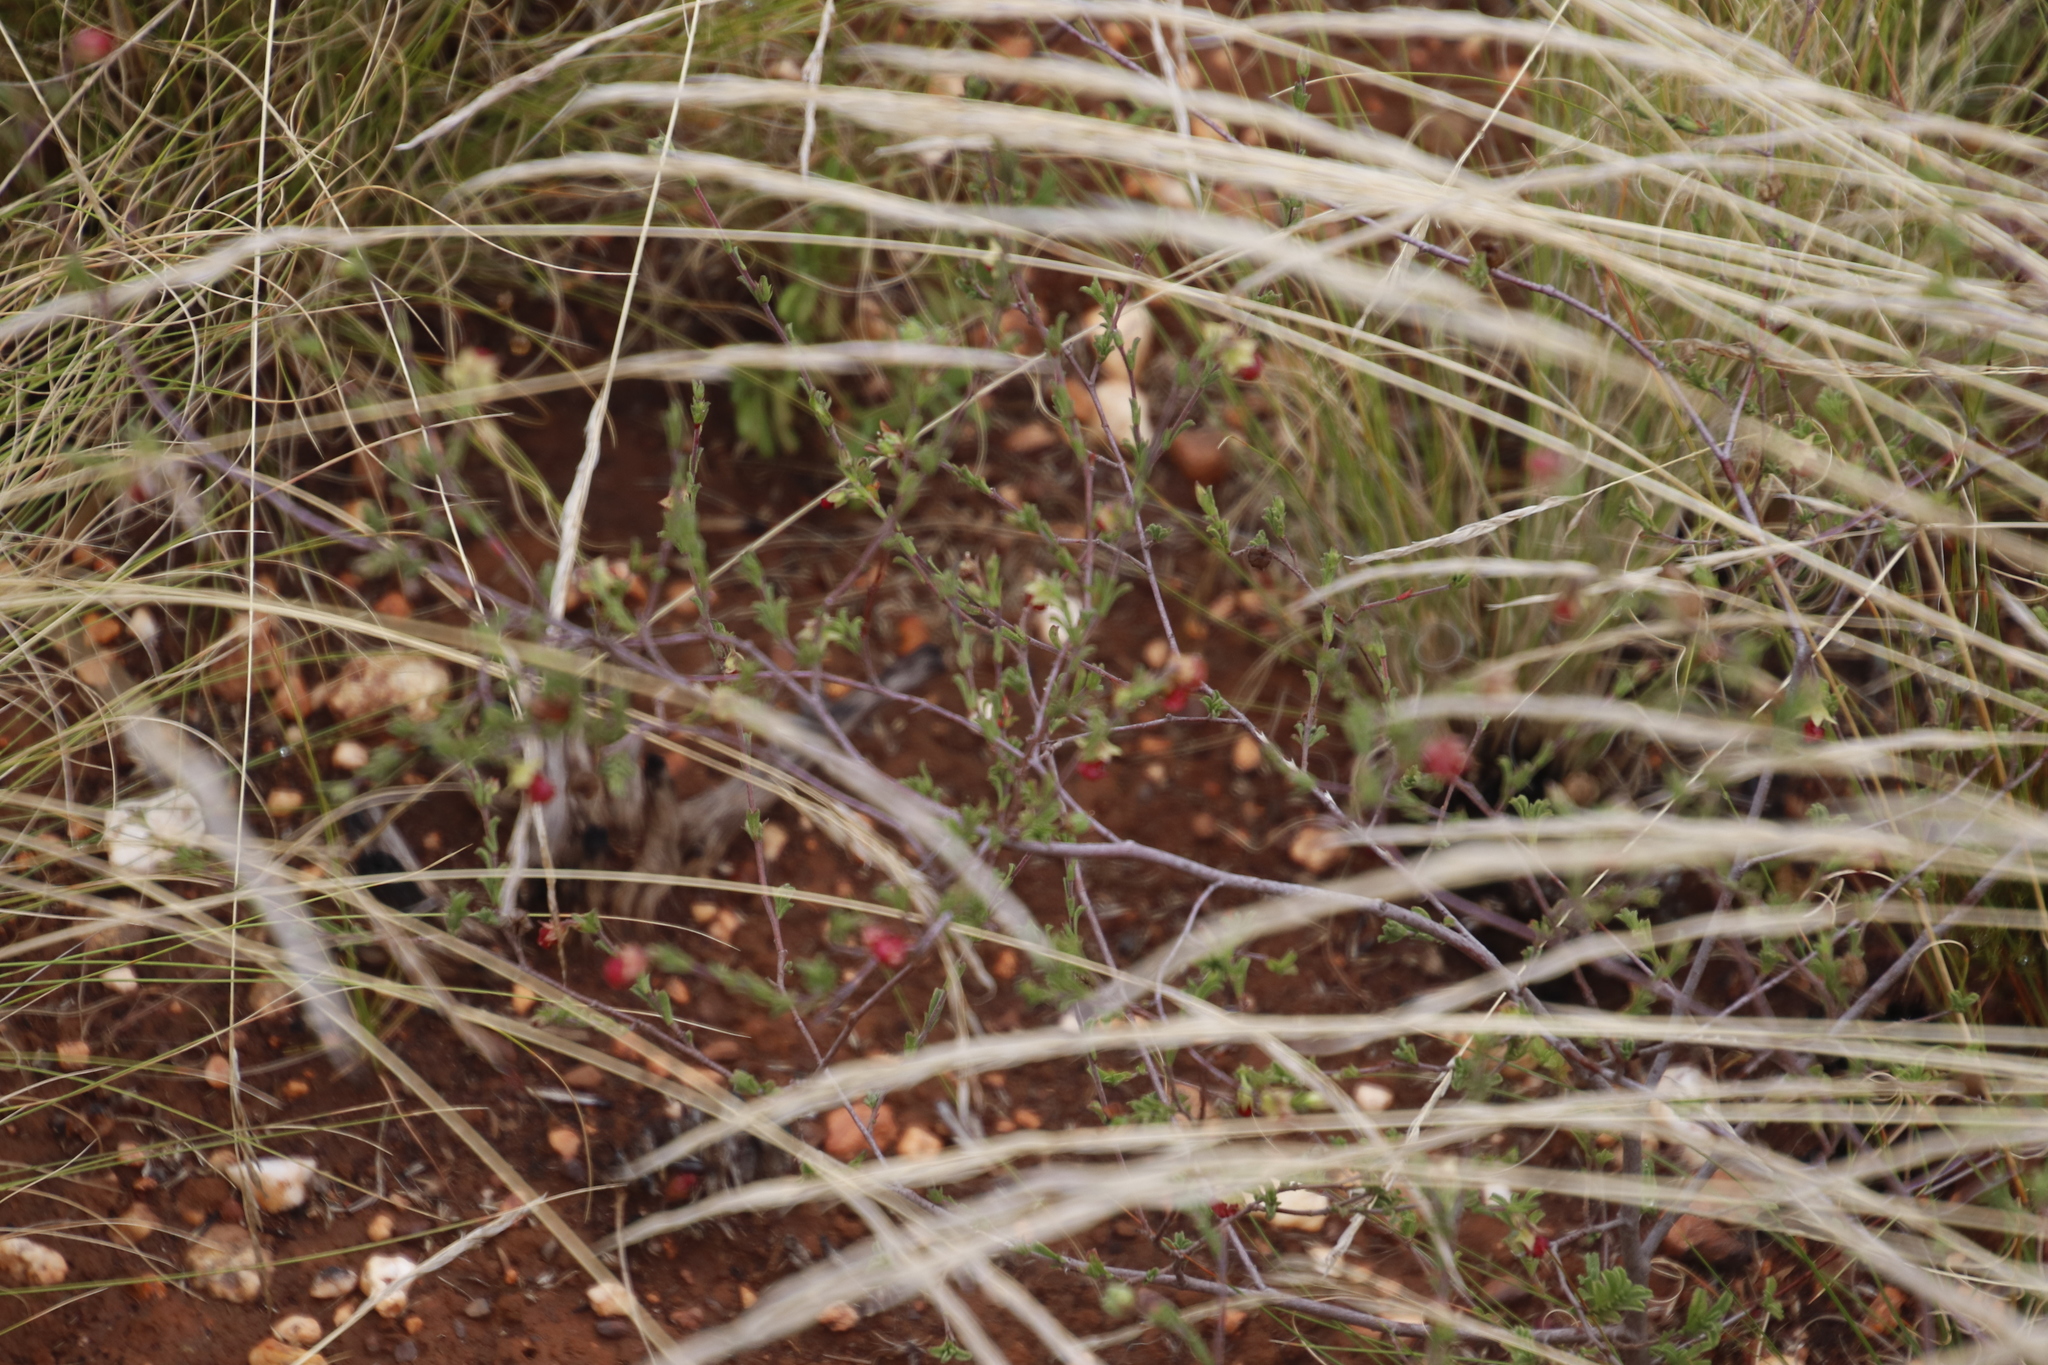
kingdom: Plantae
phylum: Tracheophyta
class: Magnoliopsida
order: Malvales
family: Malvaceae
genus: Hermannia
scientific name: Hermannia flammula
